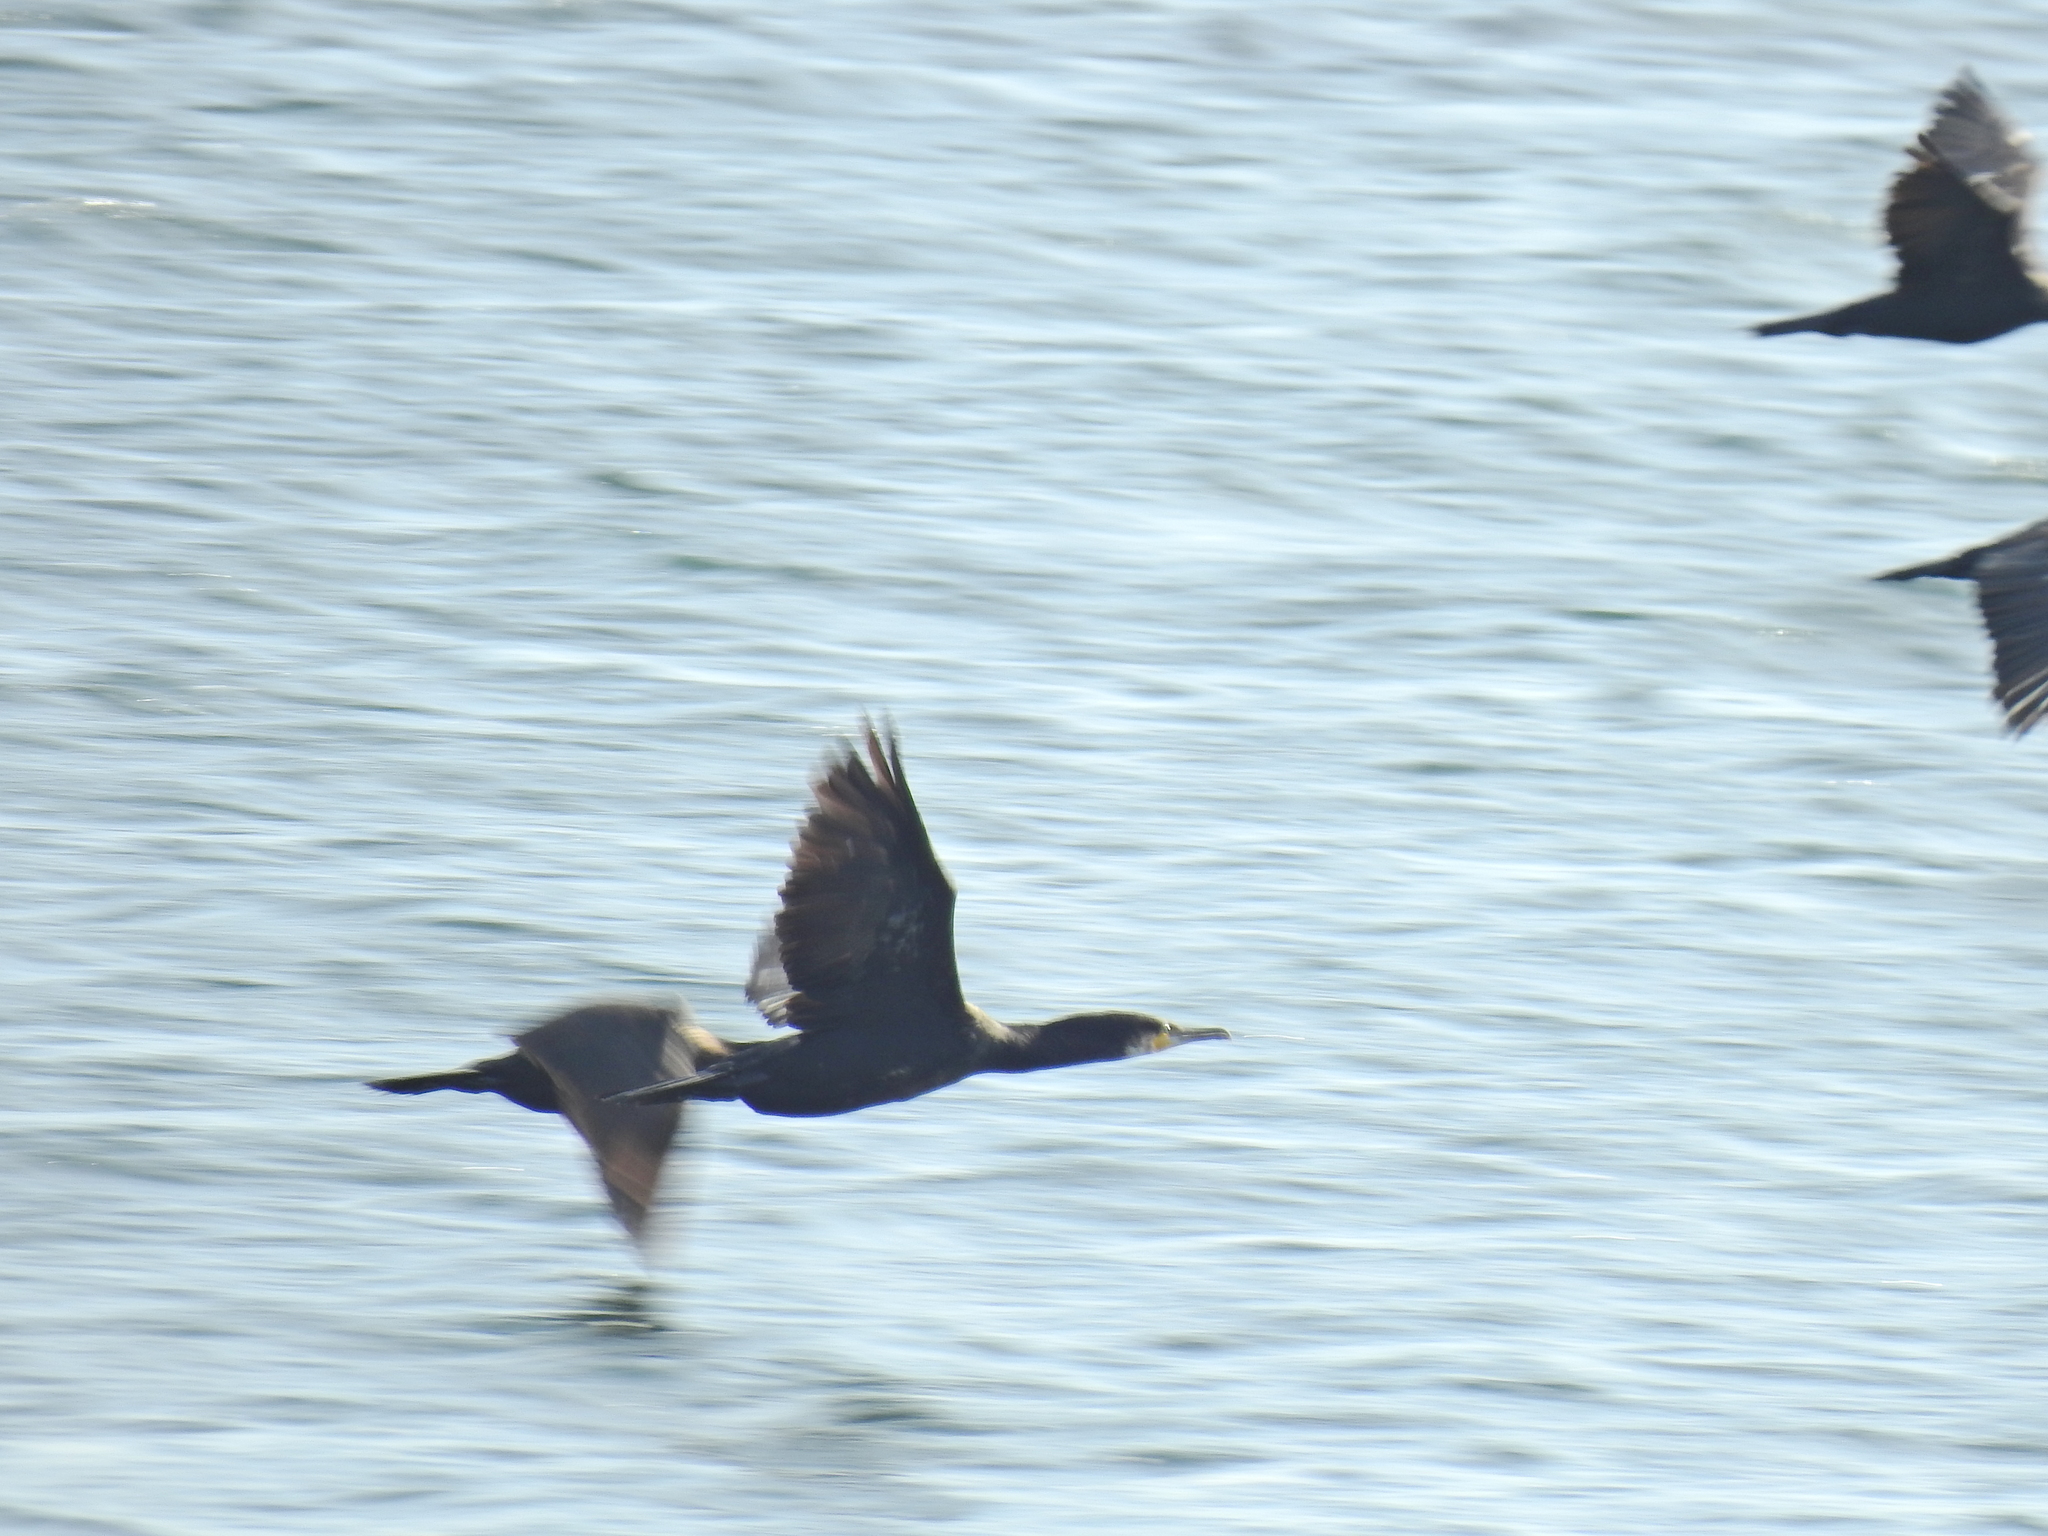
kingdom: Animalia
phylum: Chordata
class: Aves
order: Suliformes
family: Phalacrocoracidae
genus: Phalacrocorax
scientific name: Phalacrocorax carbo
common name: Great cormorant
